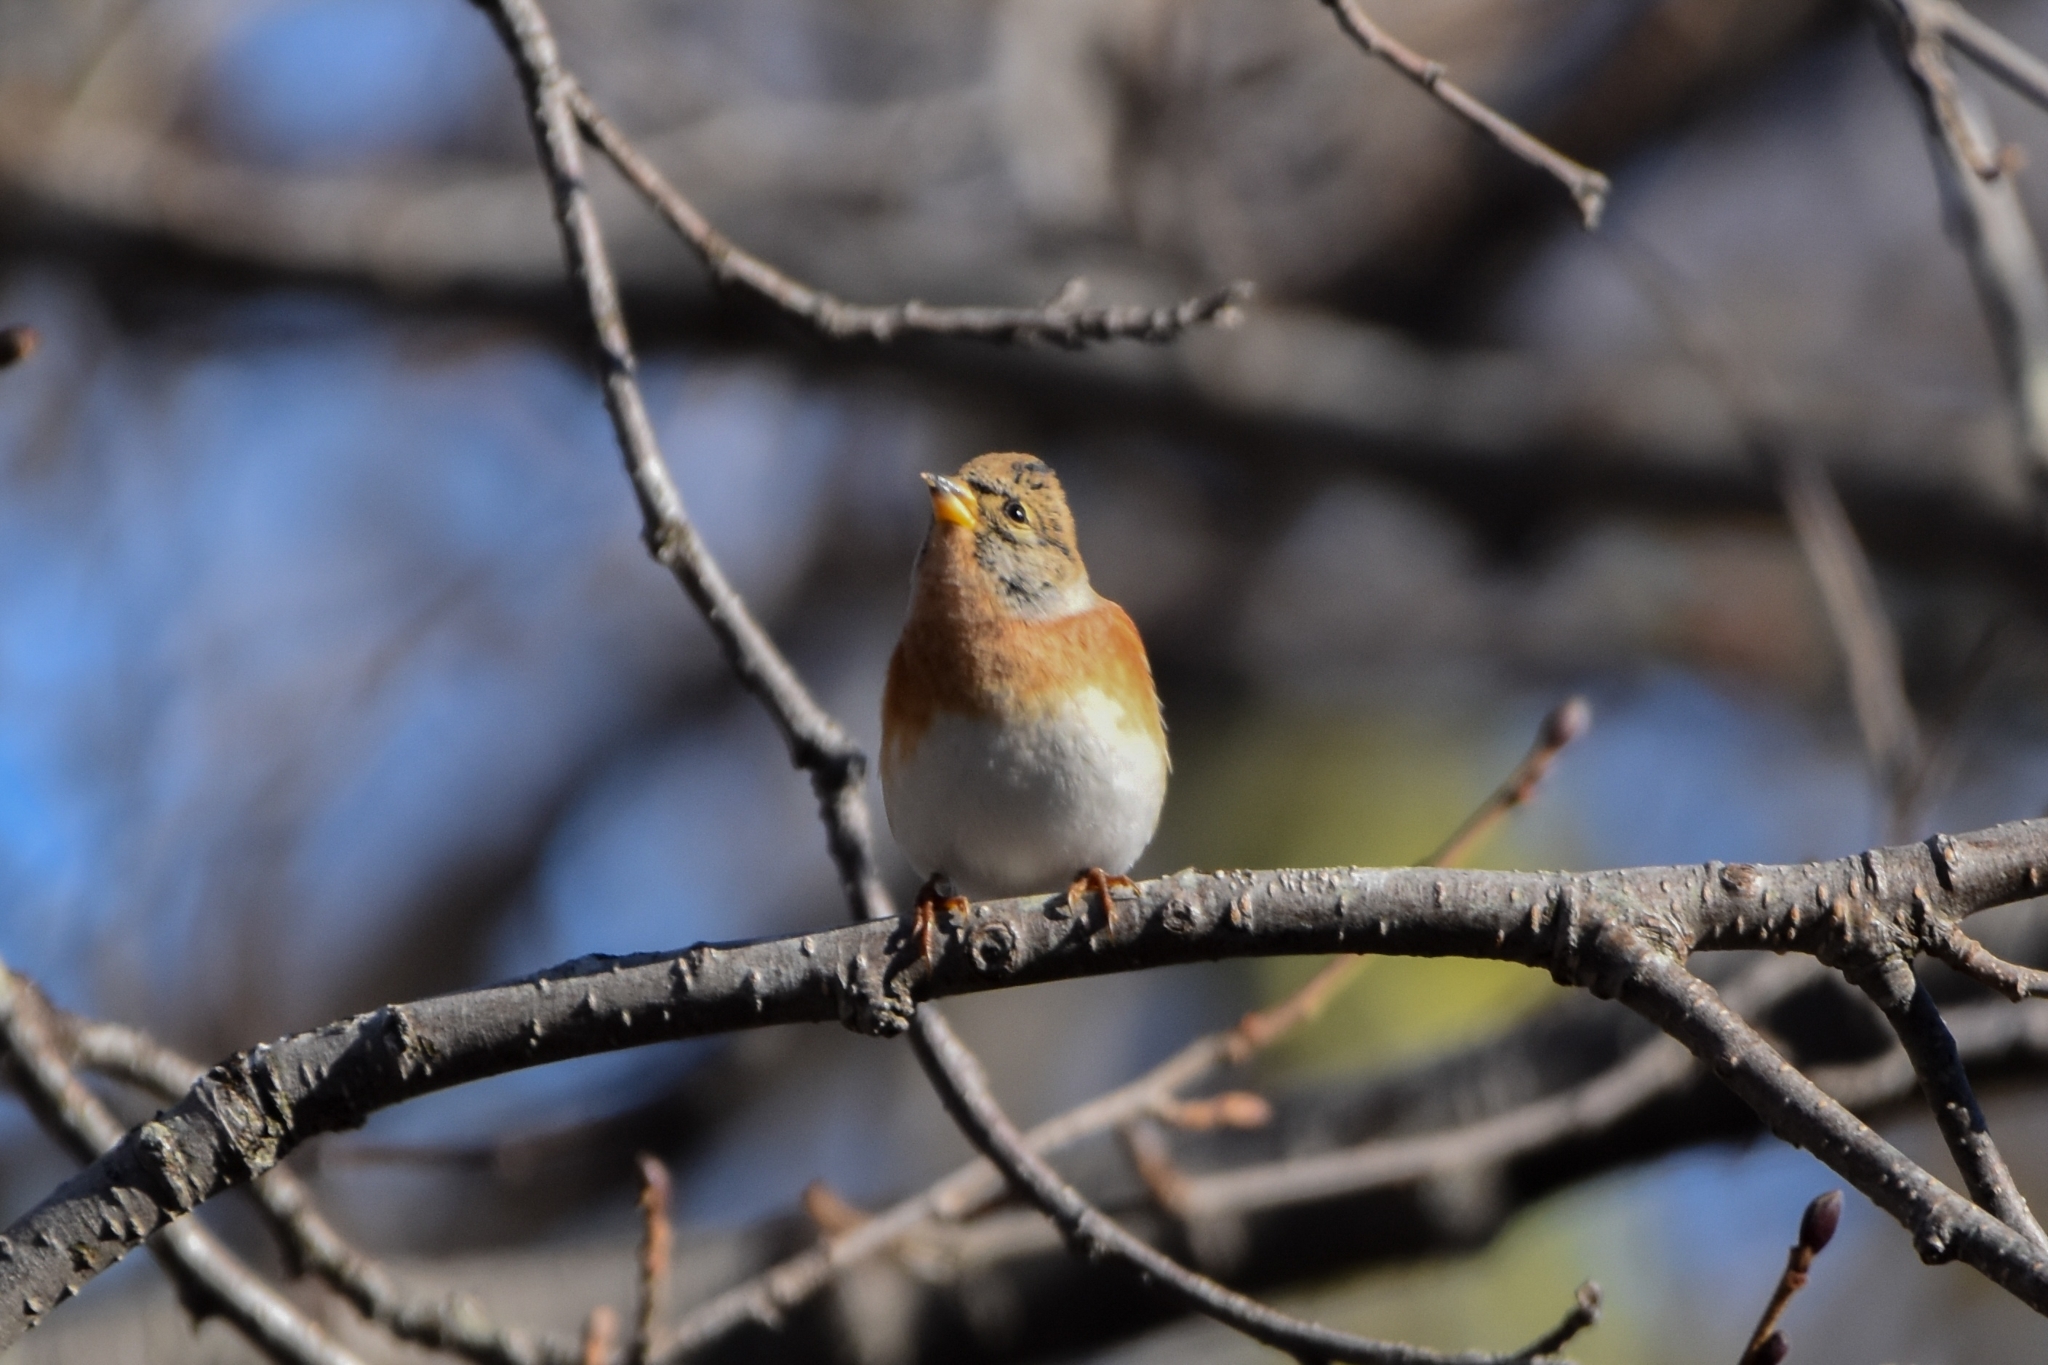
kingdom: Animalia
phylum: Chordata
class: Aves
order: Passeriformes
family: Fringillidae
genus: Fringilla
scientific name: Fringilla montifringilla
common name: Brambling
